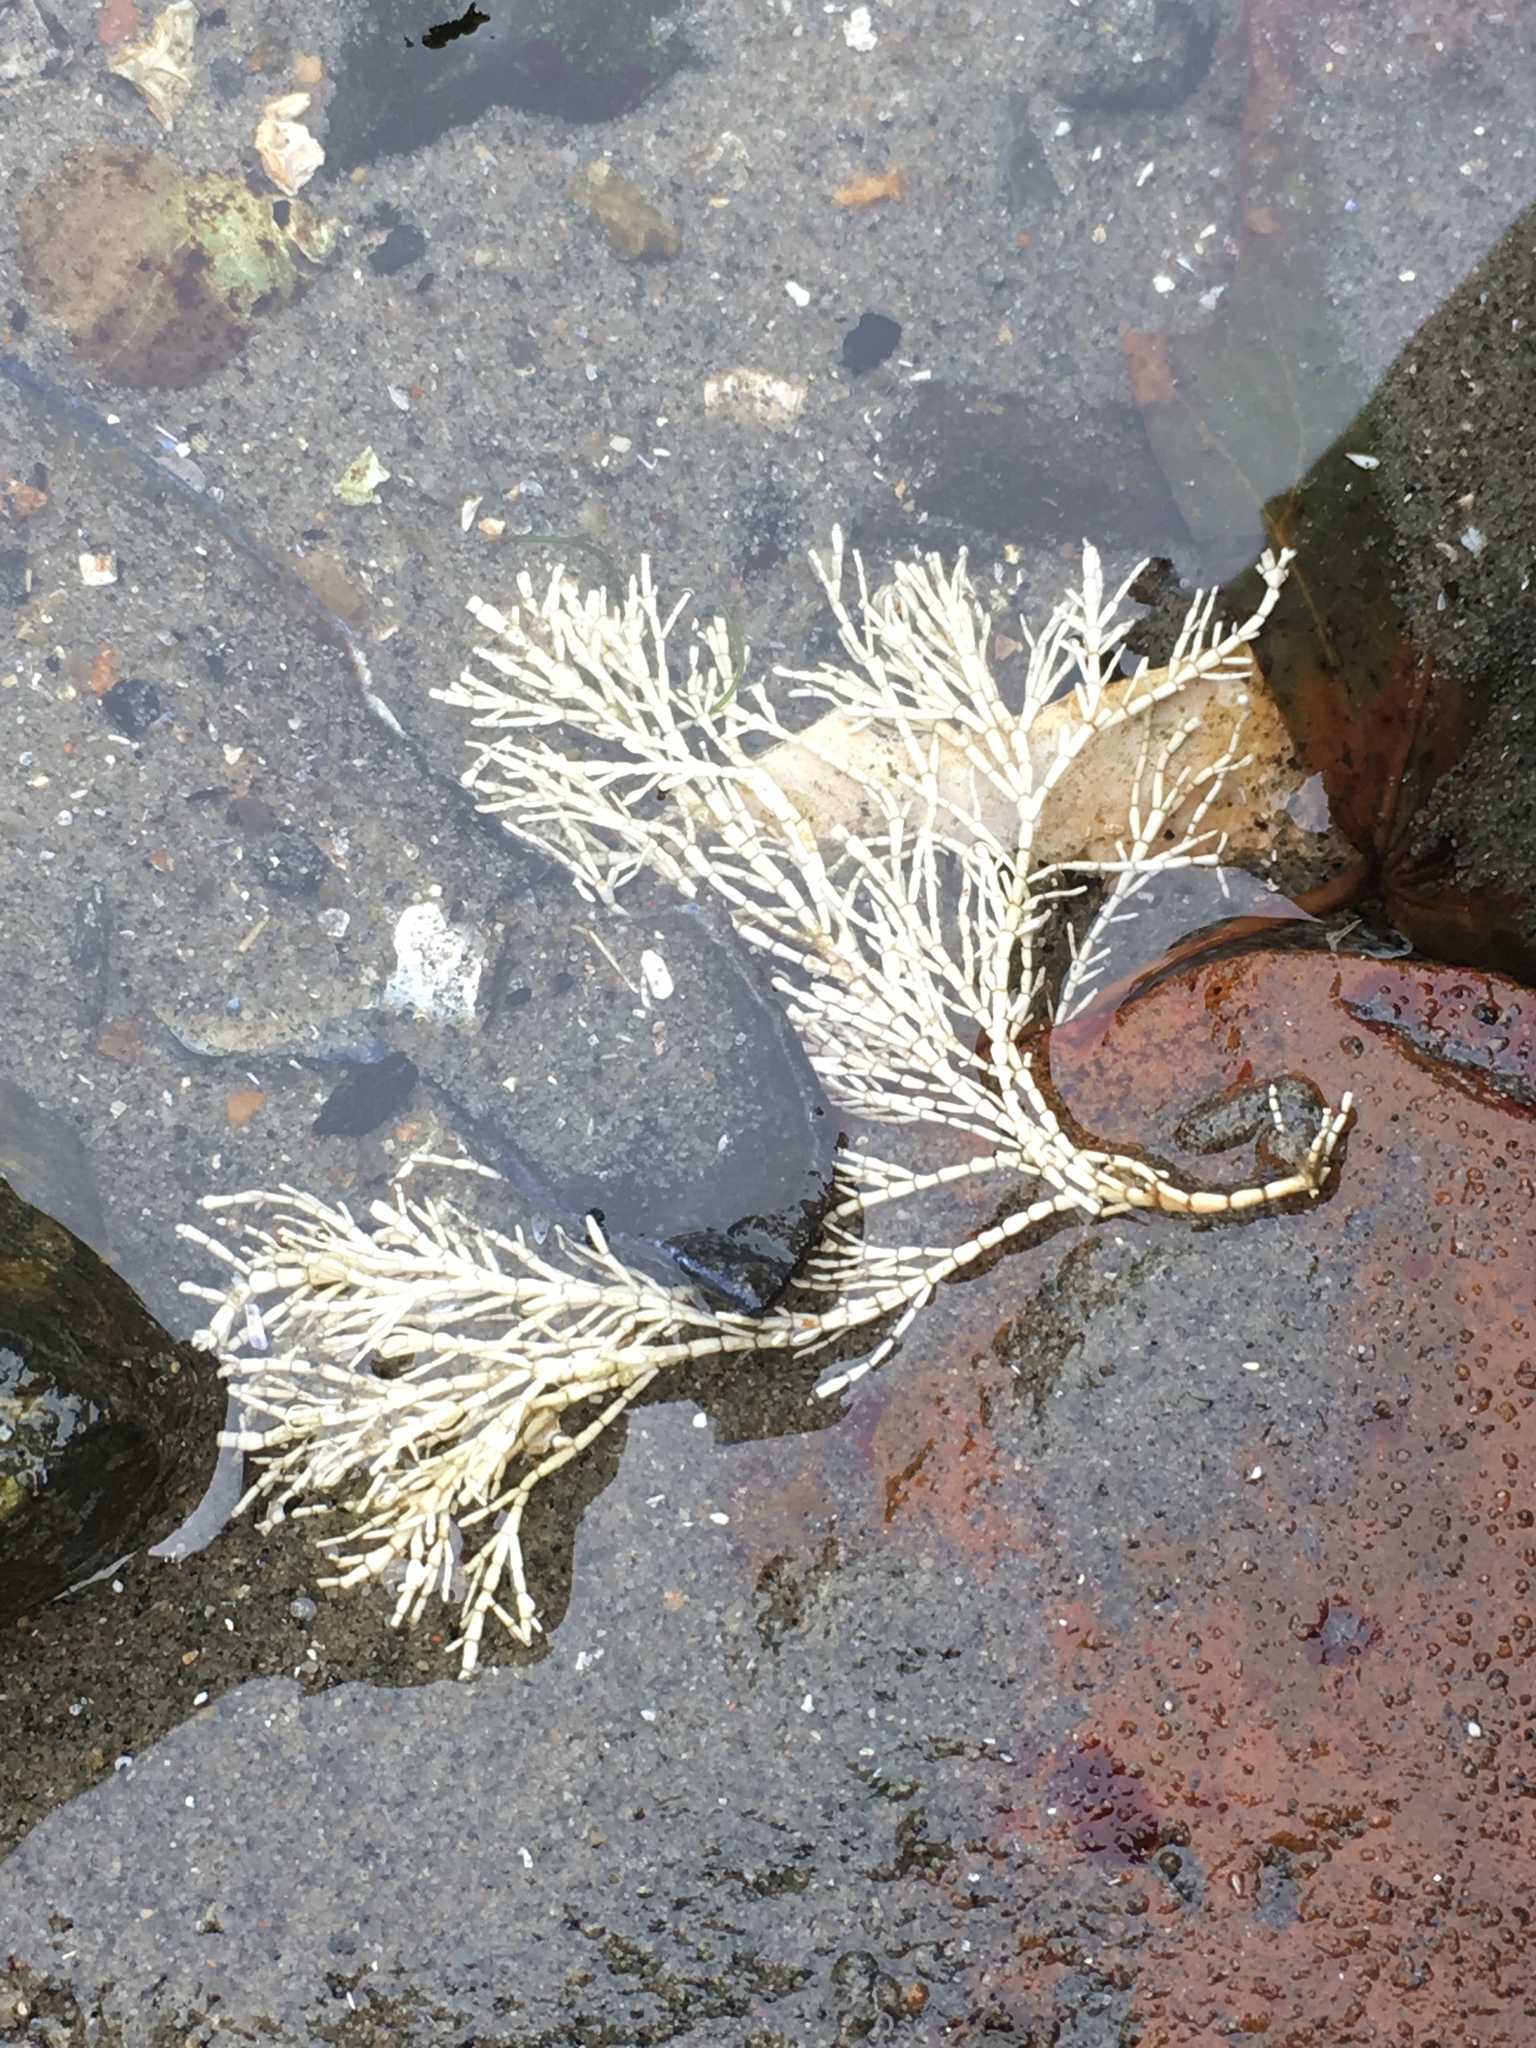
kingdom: Plantae
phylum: Rhodophyta
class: Florideophyceae
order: Corallinales
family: Corallinaceae
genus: Corallina
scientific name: Corallina officinalis
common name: Coral weed
